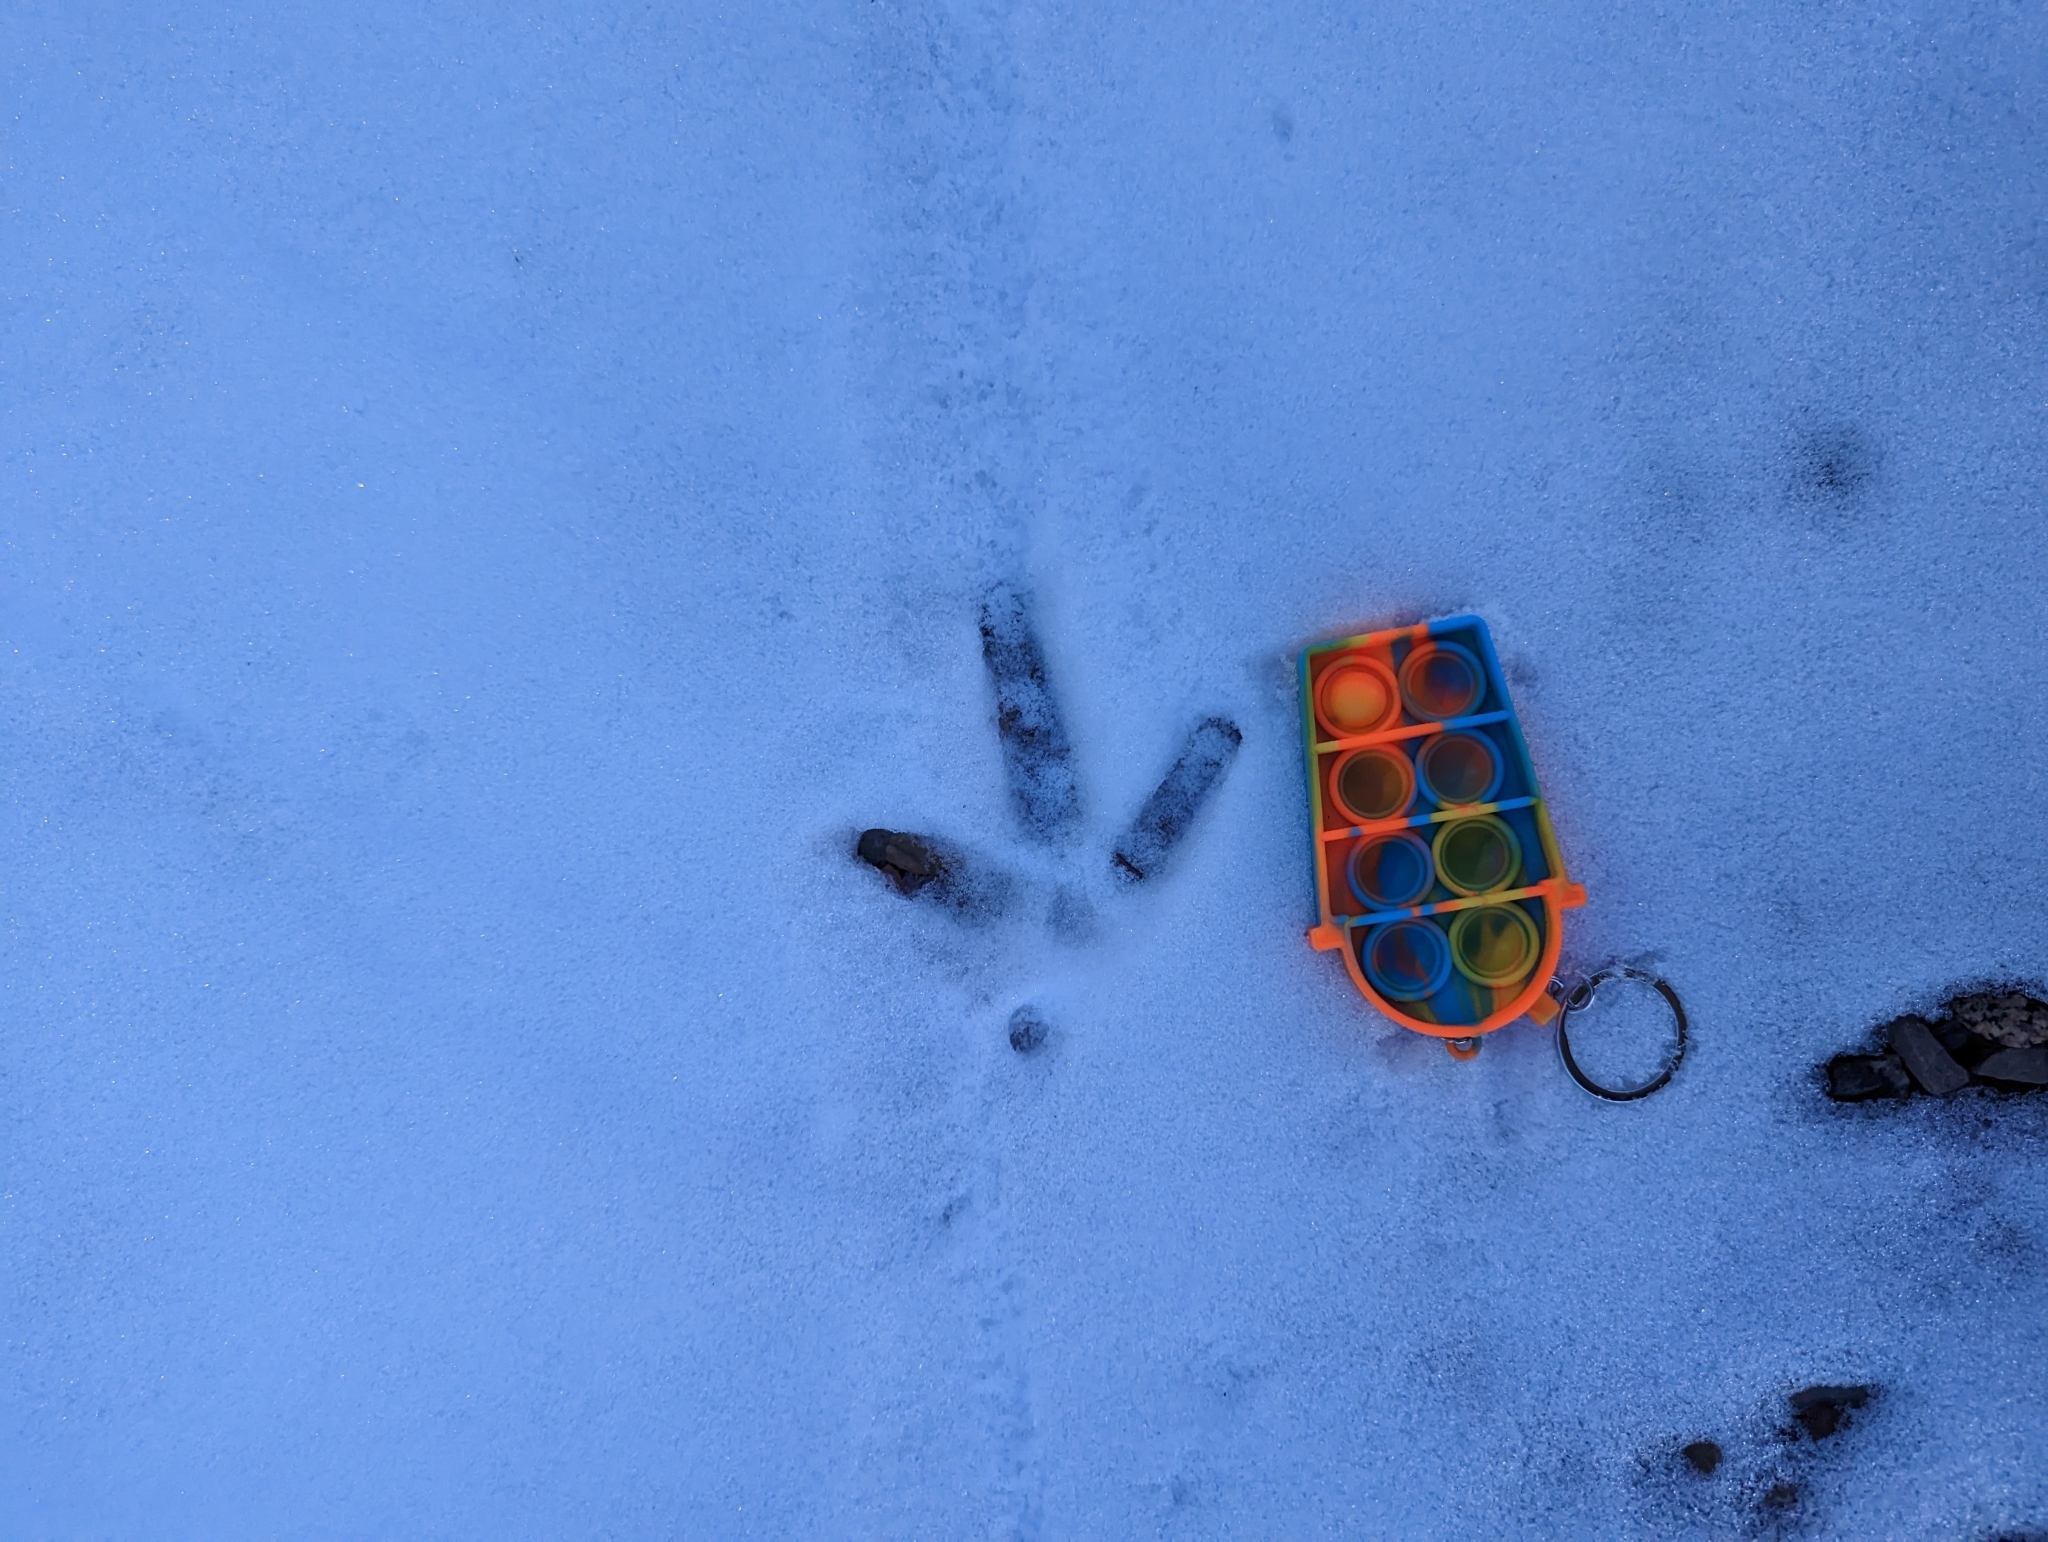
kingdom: Animalia
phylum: Chordata
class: Aves
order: Galliformes
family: Phasianidae
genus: Meleagris
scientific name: Meleagris gallopavo
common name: Wild turkey
